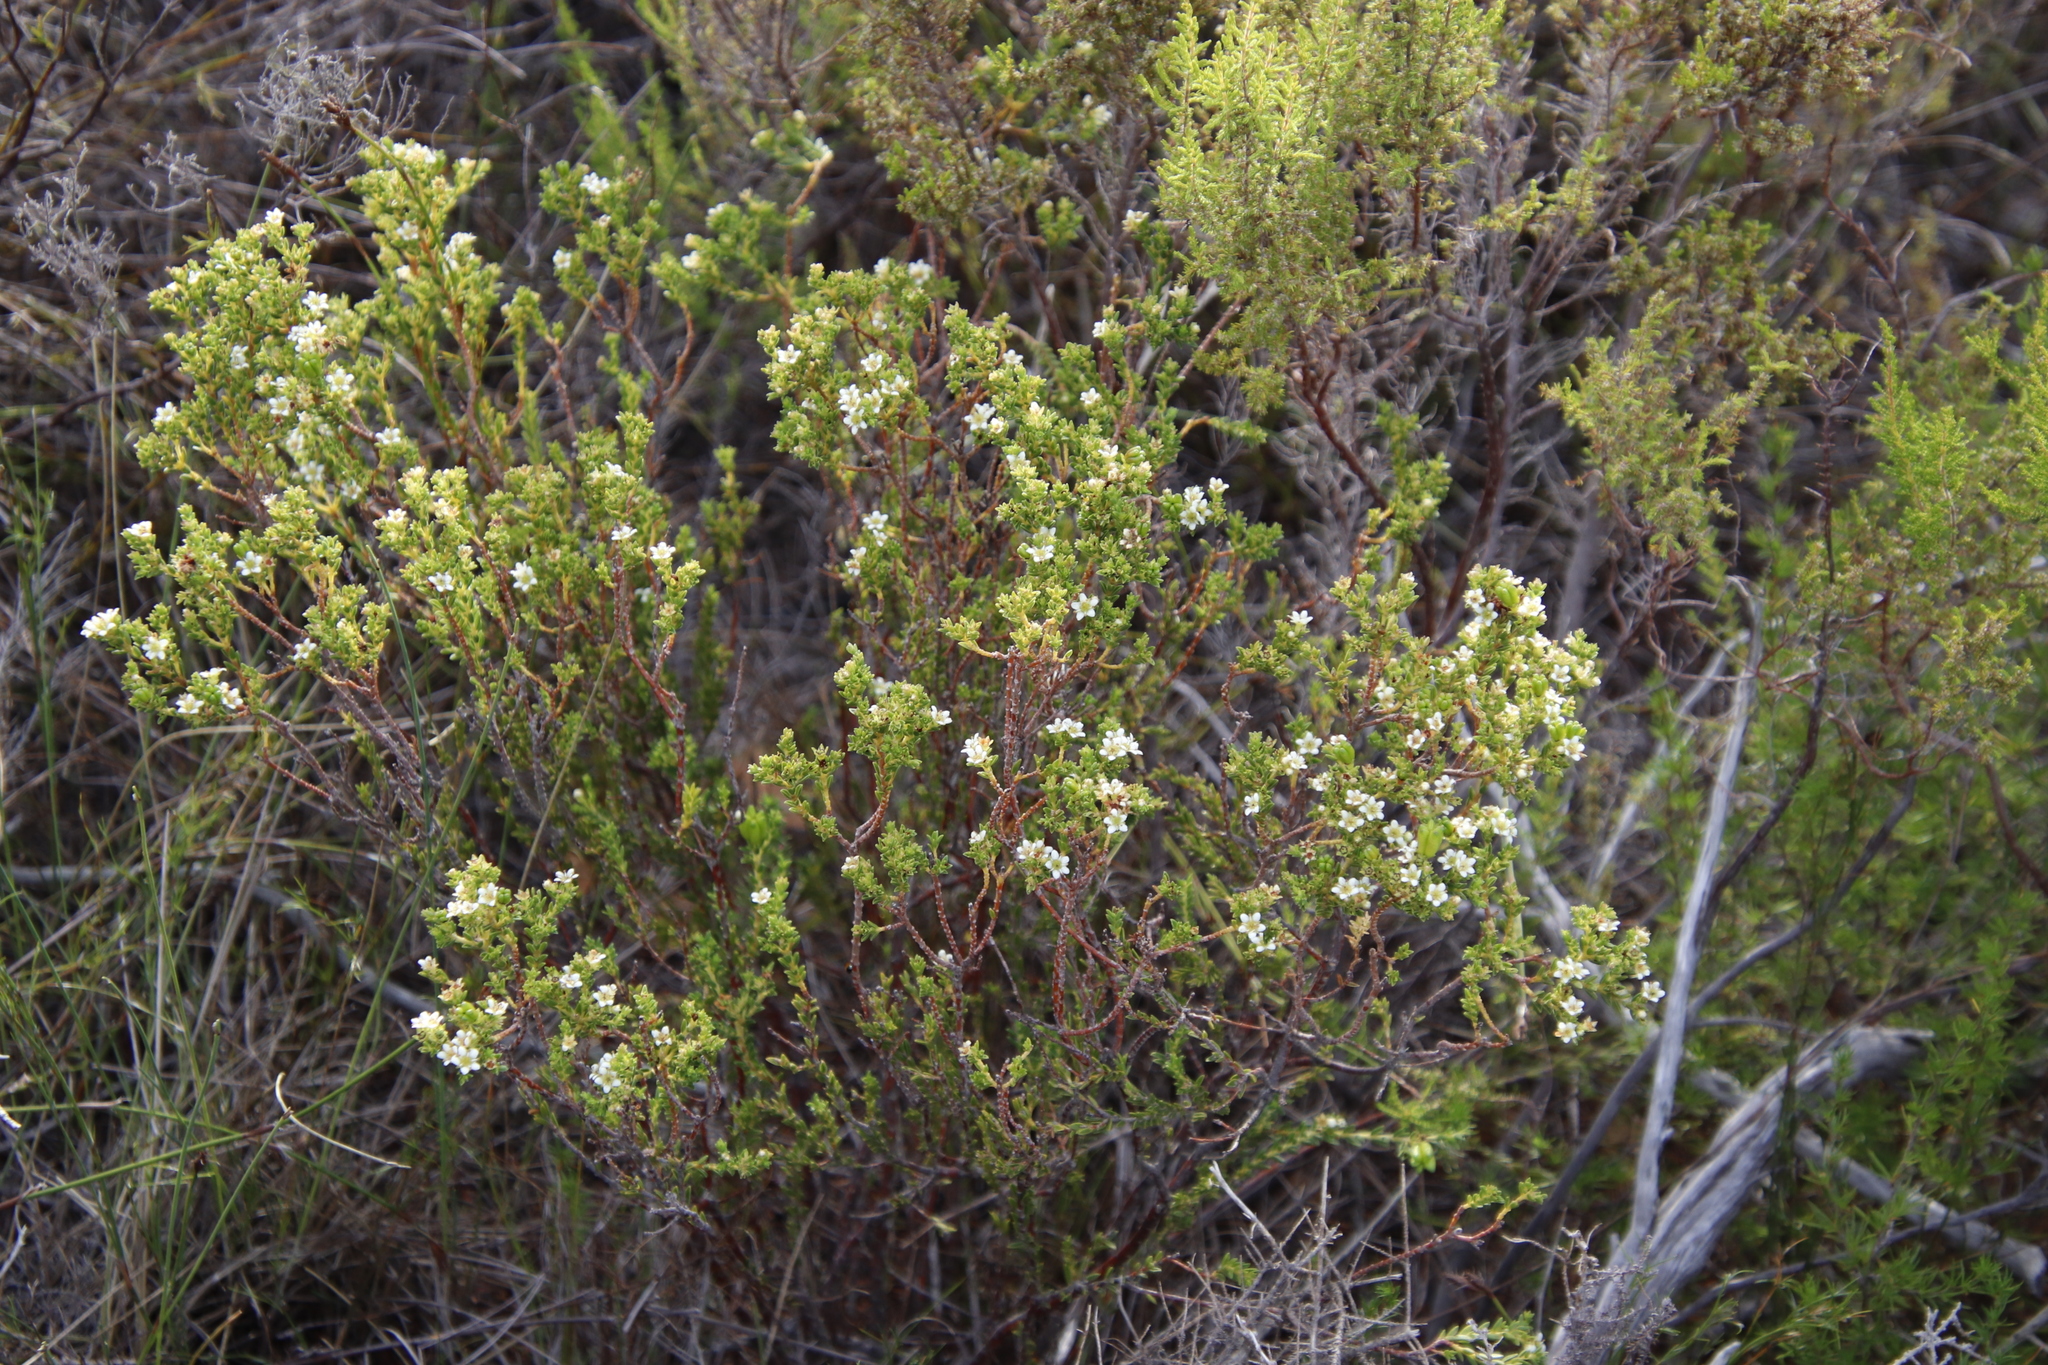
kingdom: Plantae
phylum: Tracheophyta
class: Magnoliopsida
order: Sapindales
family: Rutaceae
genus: Diosma
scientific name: Diosma oppositifolia
